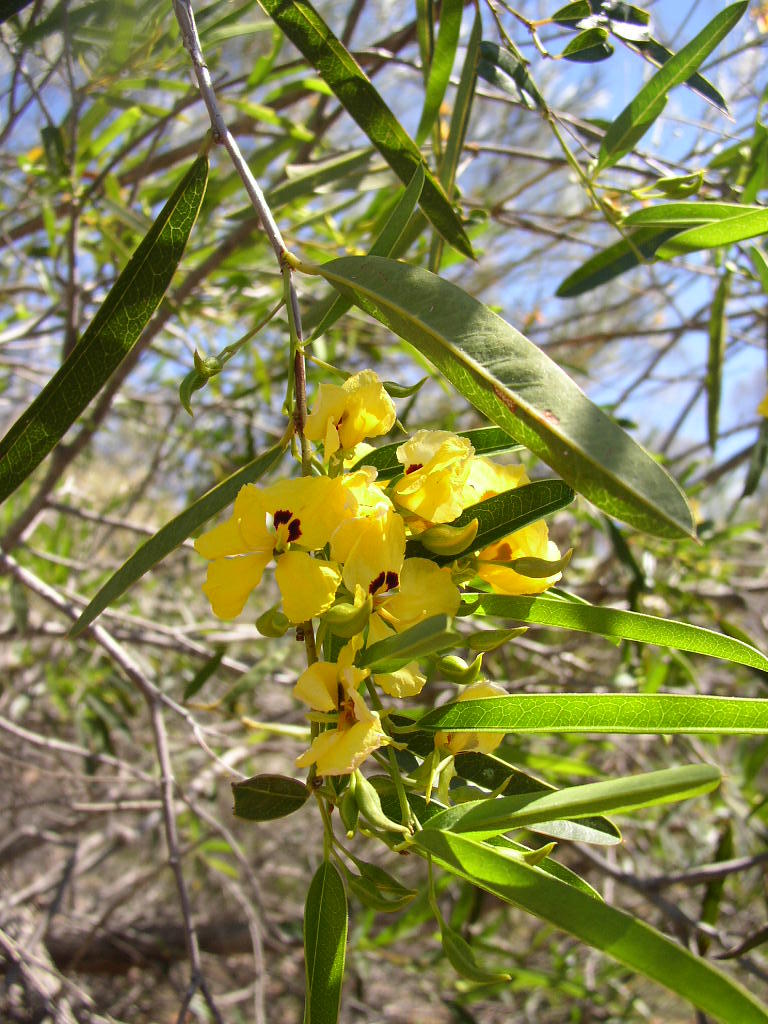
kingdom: Plantae
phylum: Tracheophyta
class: Magnoliopsida
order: Fabales
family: Fabaceae
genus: Labichea
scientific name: Labichea lanceolata
